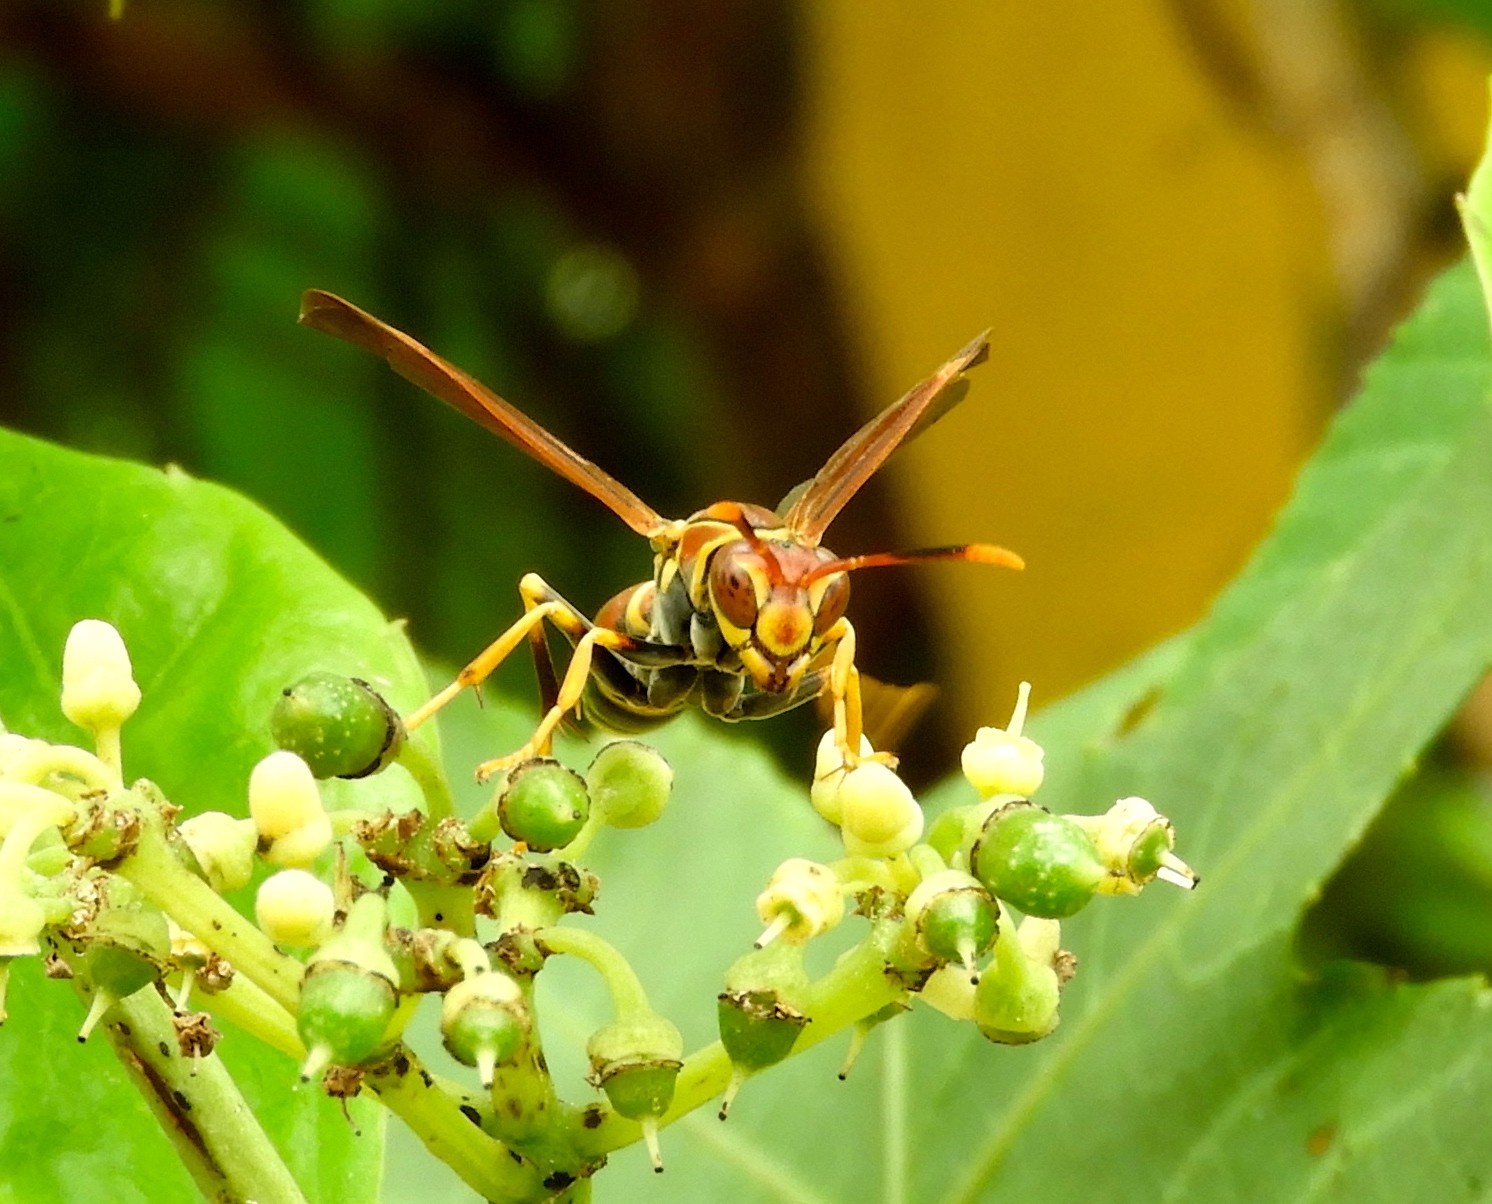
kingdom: Animalia
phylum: Arthropoda
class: Insecta
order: Hymenoptera
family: Eumenidae
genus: Polistes
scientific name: Polistes instabilis
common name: Unstable paper wasp
